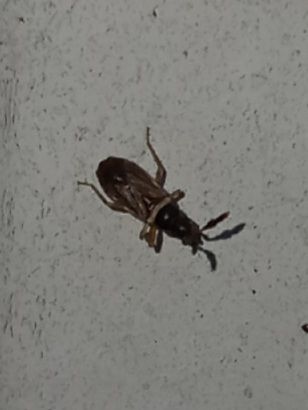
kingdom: Animalia
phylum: Arthropoda
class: Insecta
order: Hemiptera
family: Rhyparochromidae
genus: Ptochiomera
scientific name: Ptochiomera nodosa
